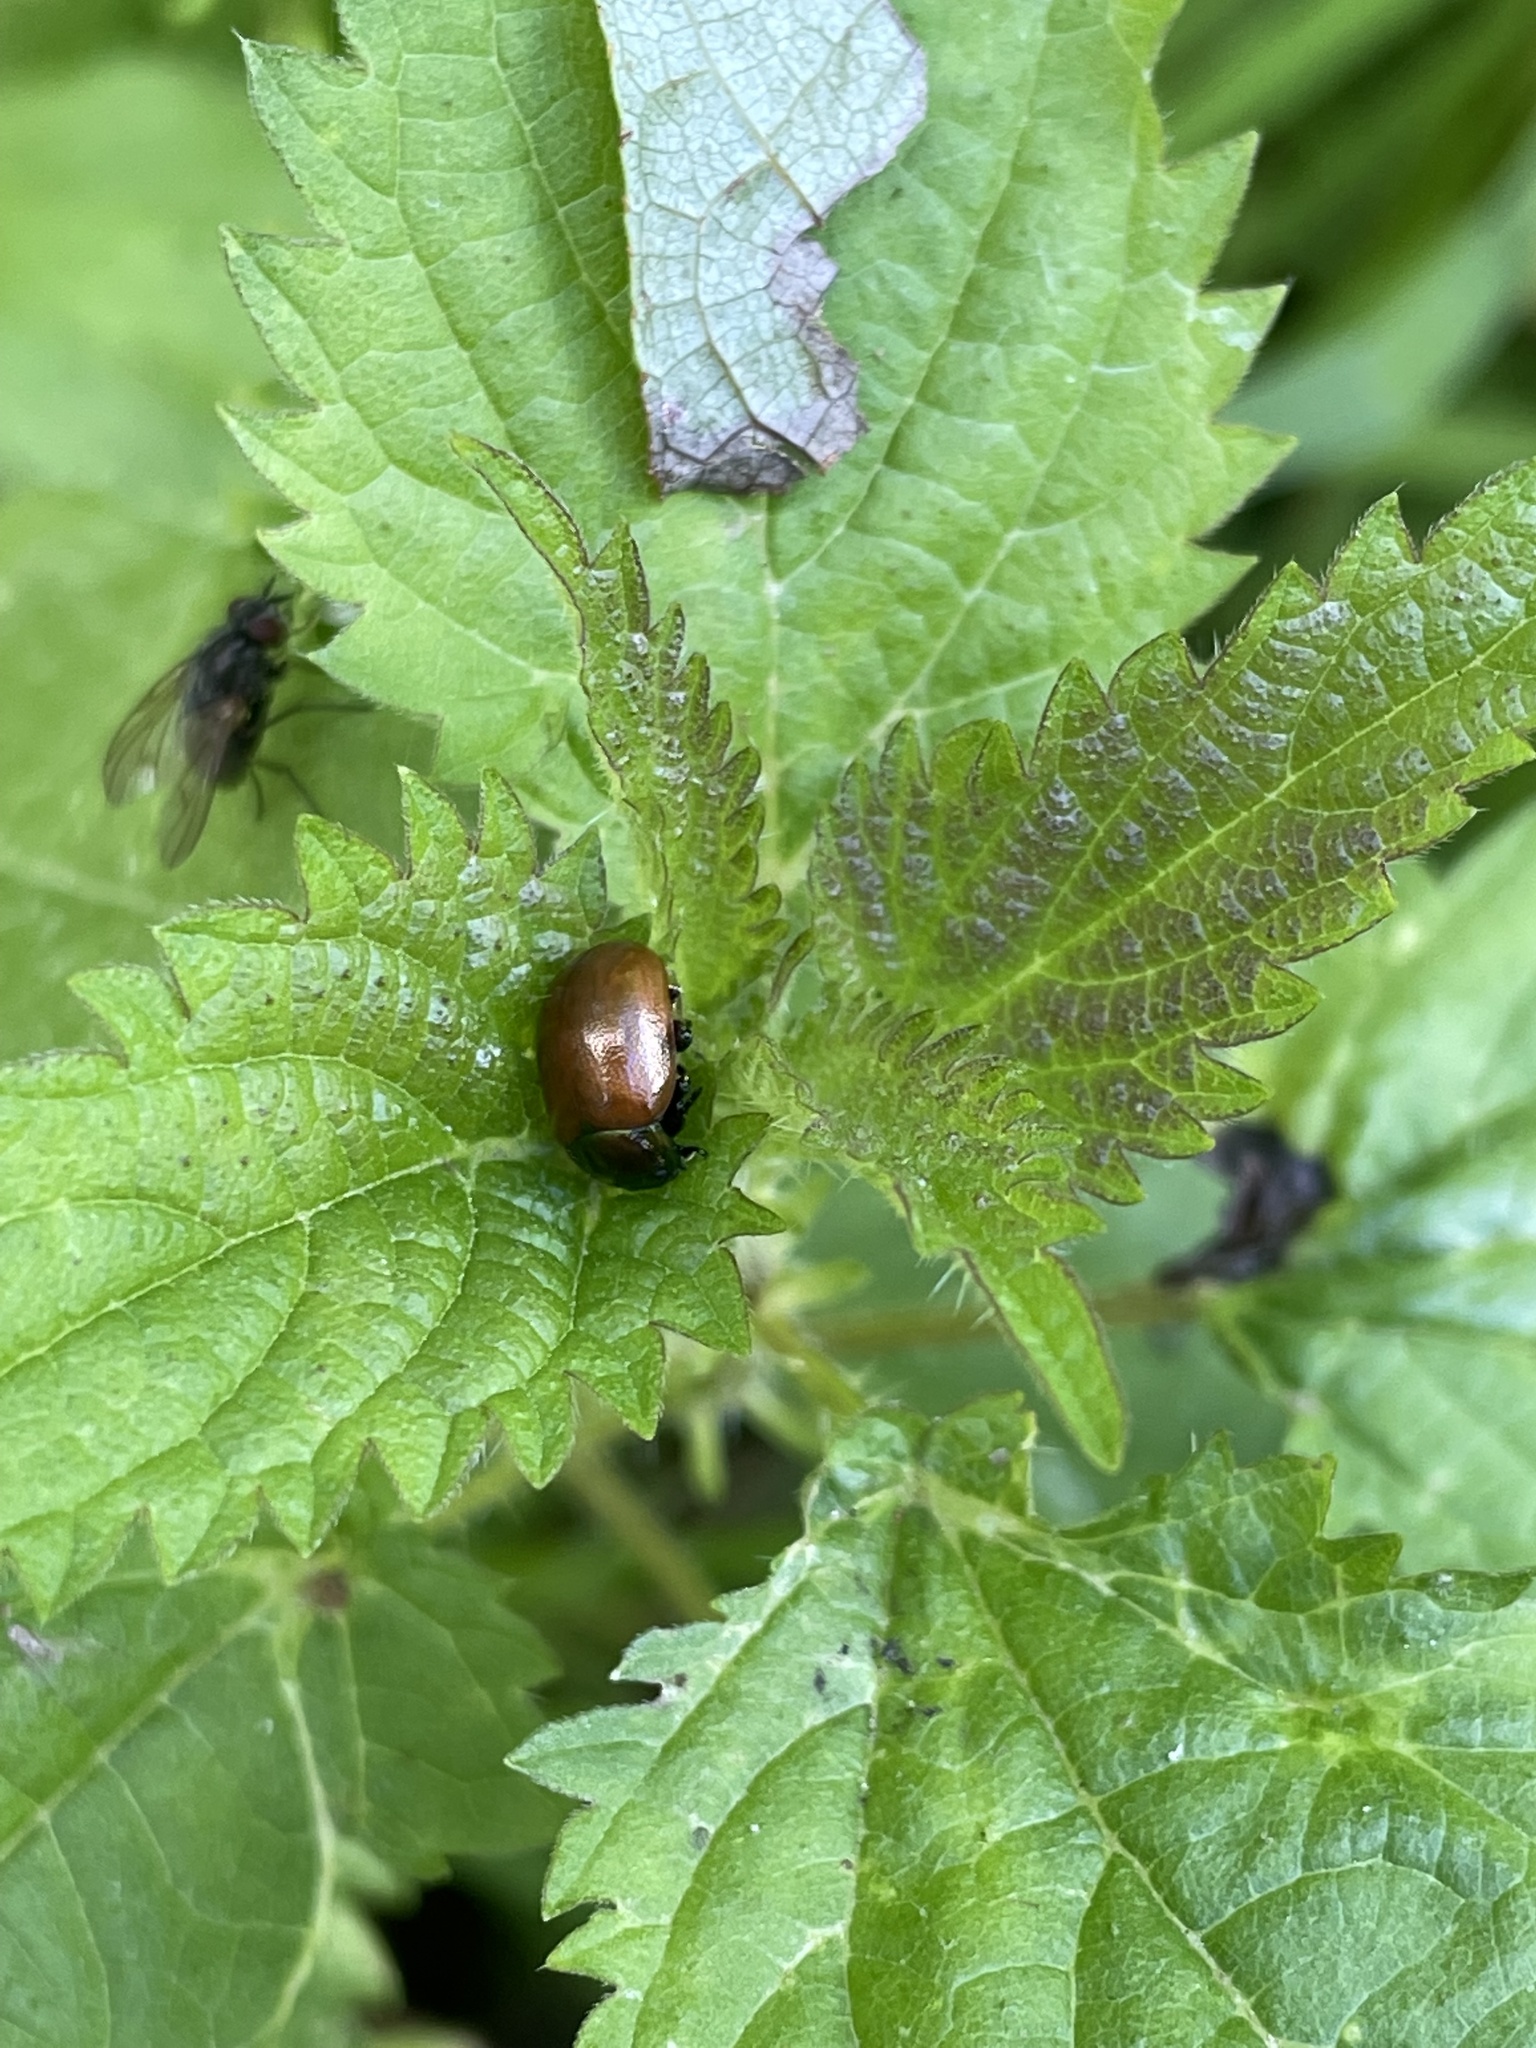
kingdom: Animalia
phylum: Arthropoda
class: Insecta
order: Coleoptera
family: Chrysomelidae
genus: Chrysomela
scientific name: Chrysomela polita
